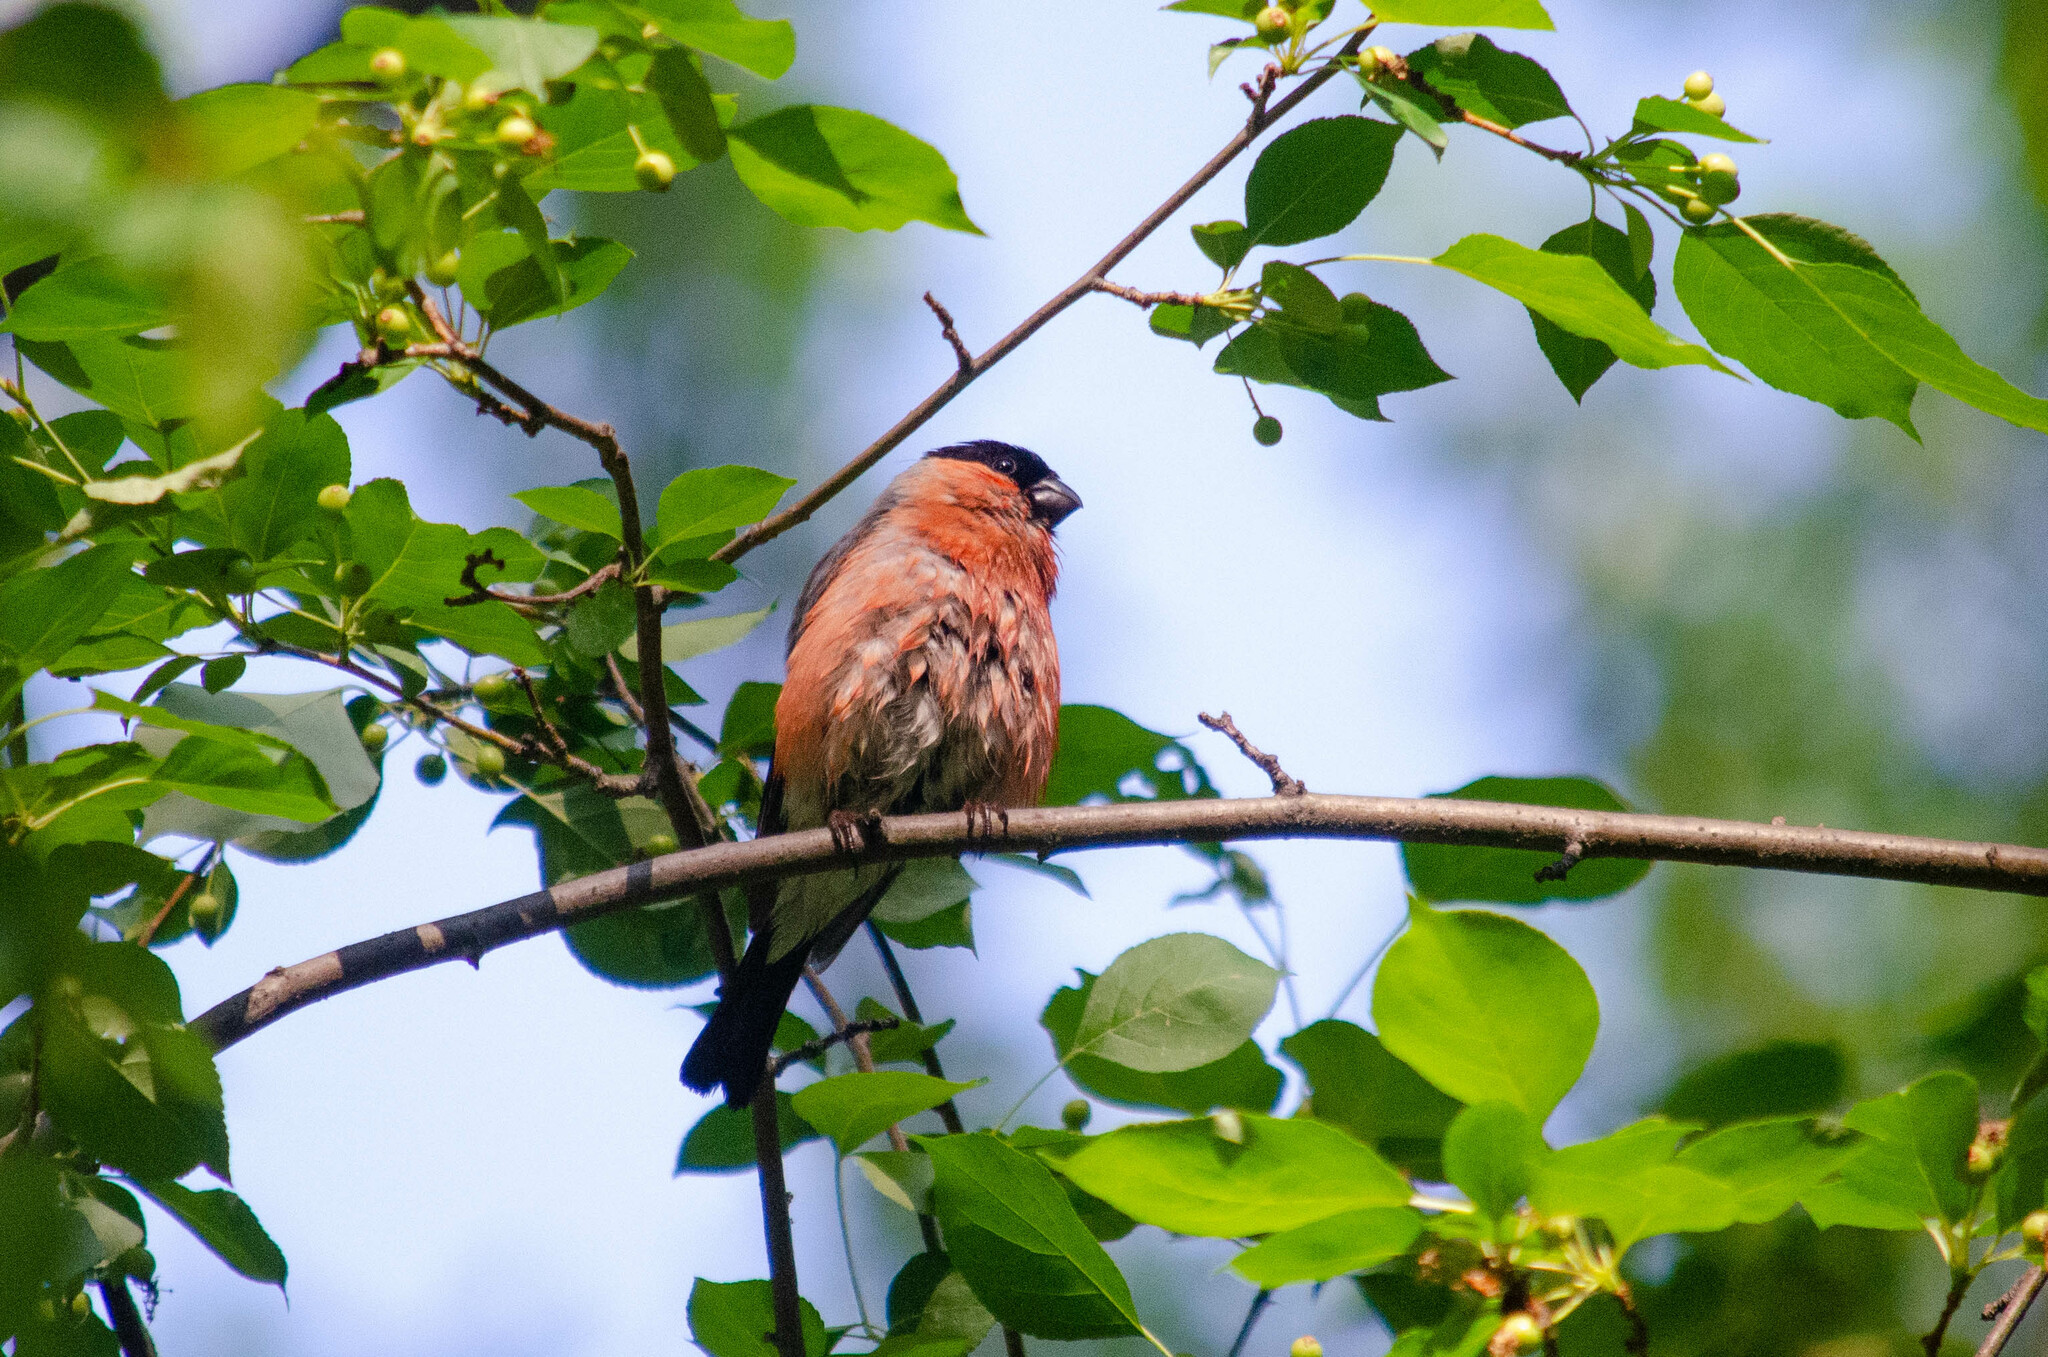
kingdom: Animalia
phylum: Chordata
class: Aves
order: Passeriformes
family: Fringillidae
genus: Pyrrhula
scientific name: Pyrrhula pyrrhula
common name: Eurasian bullfinch
